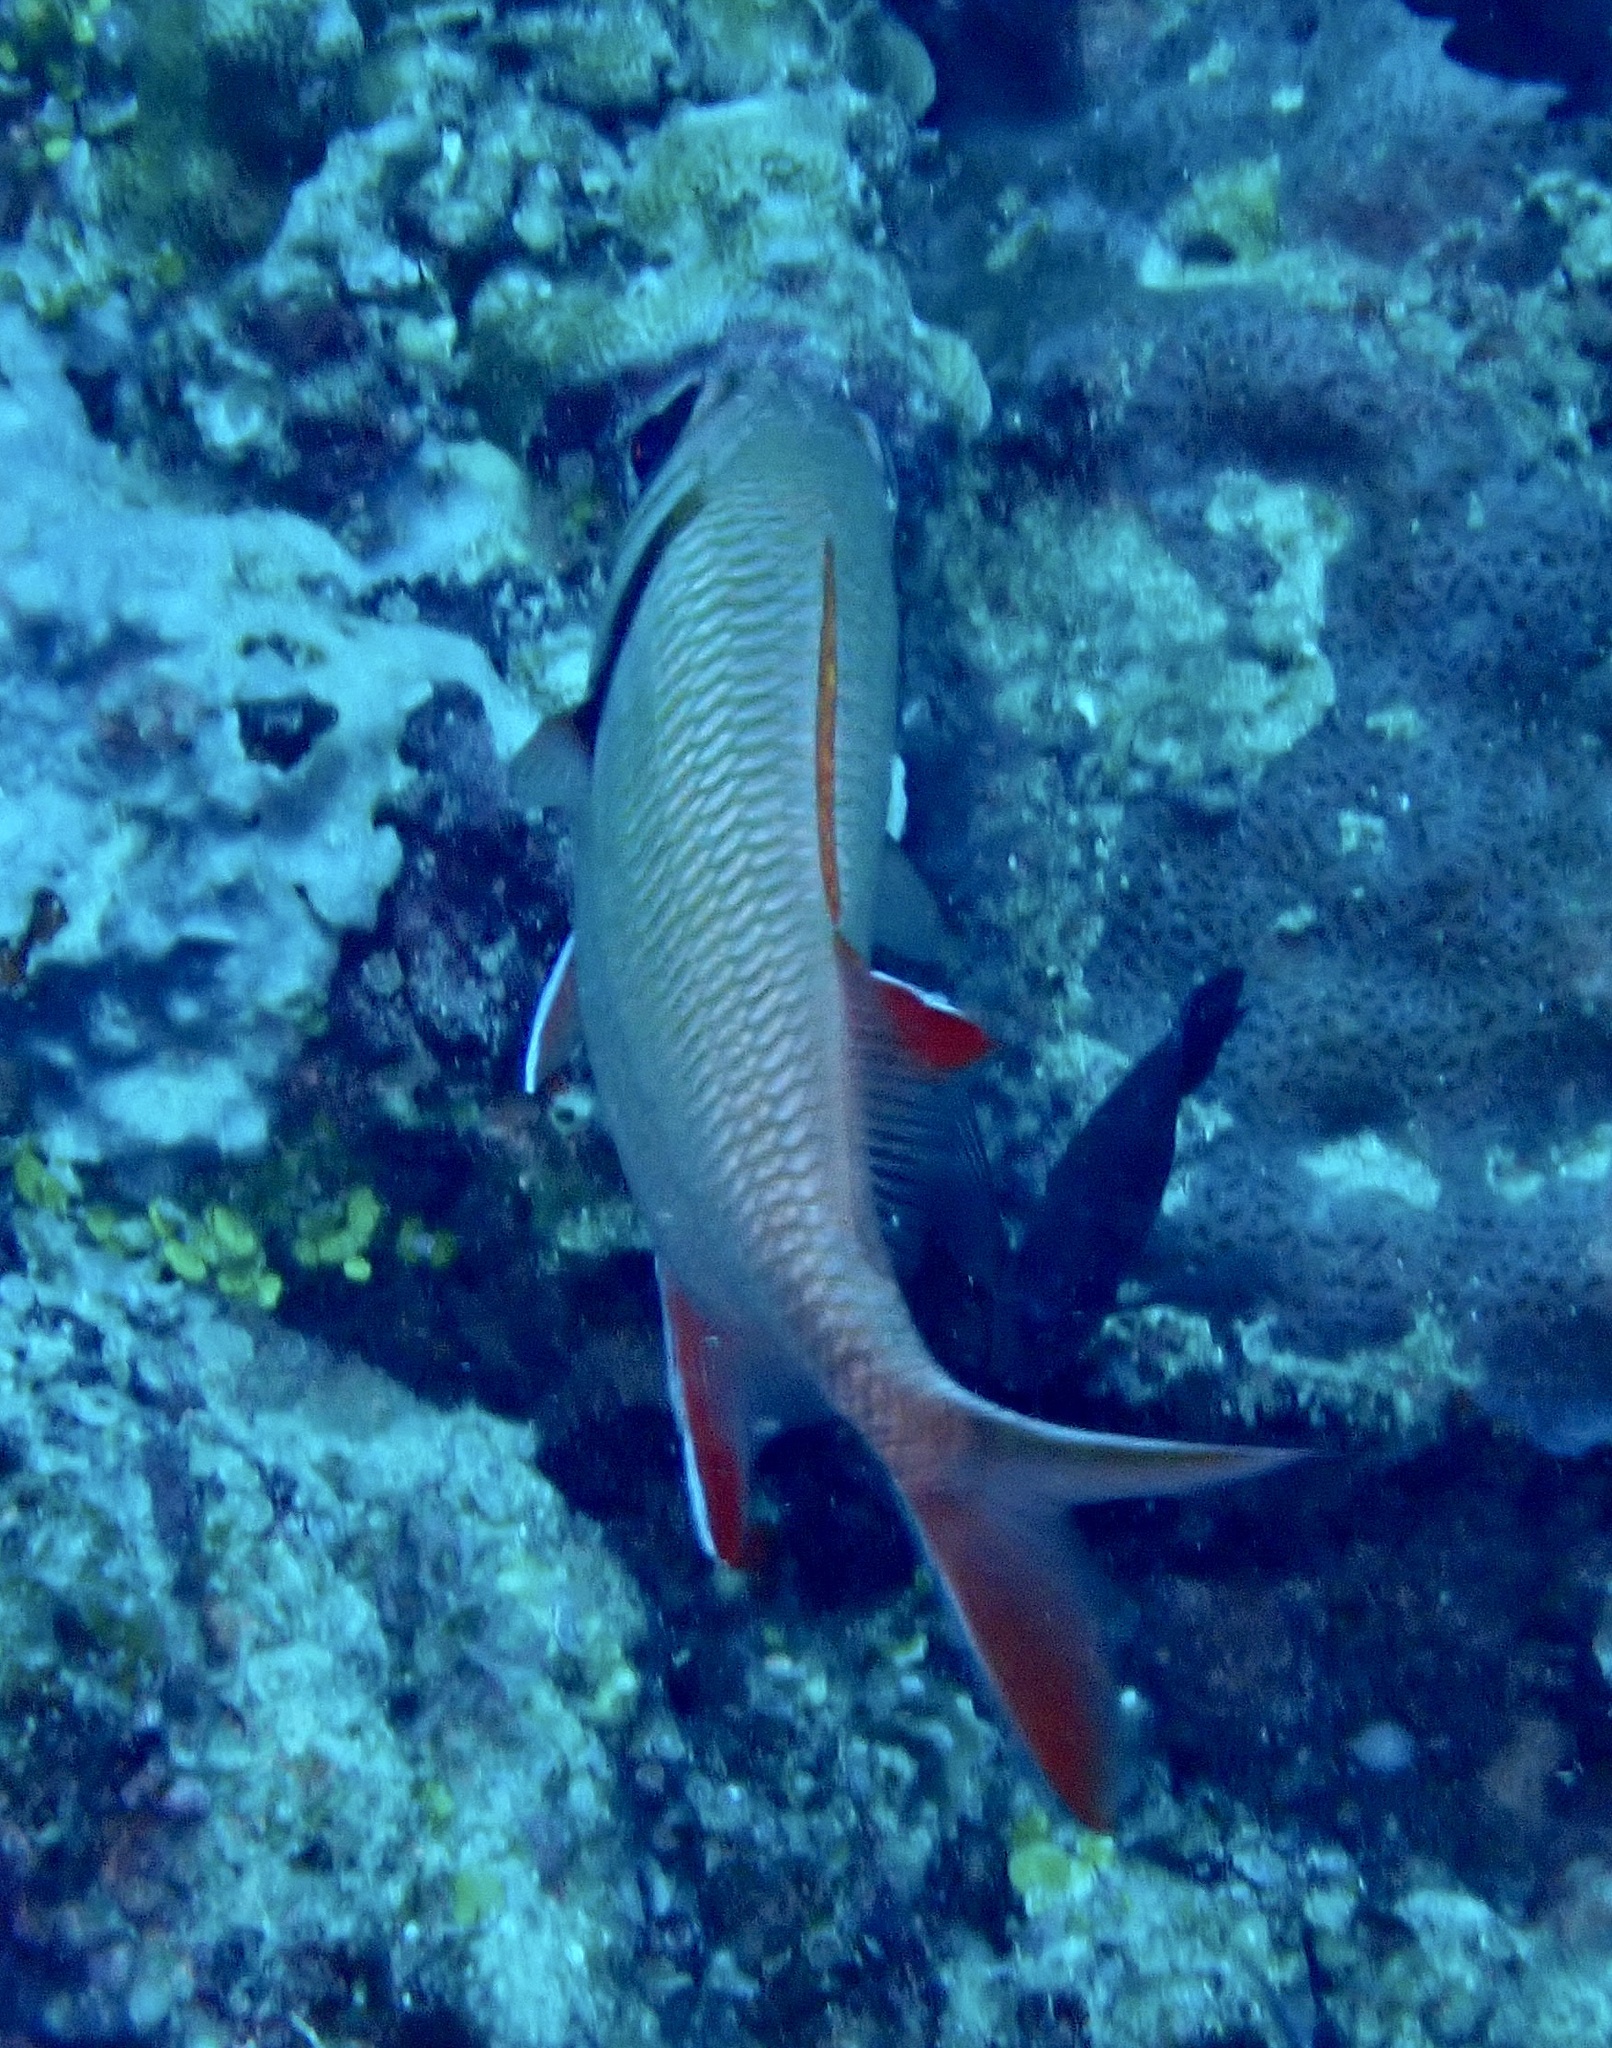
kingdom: Animalia
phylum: Chordata
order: Beryciformes
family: Holocentridae
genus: Myripristis
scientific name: Myripristis kuntee
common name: Epaulette soldierfish
